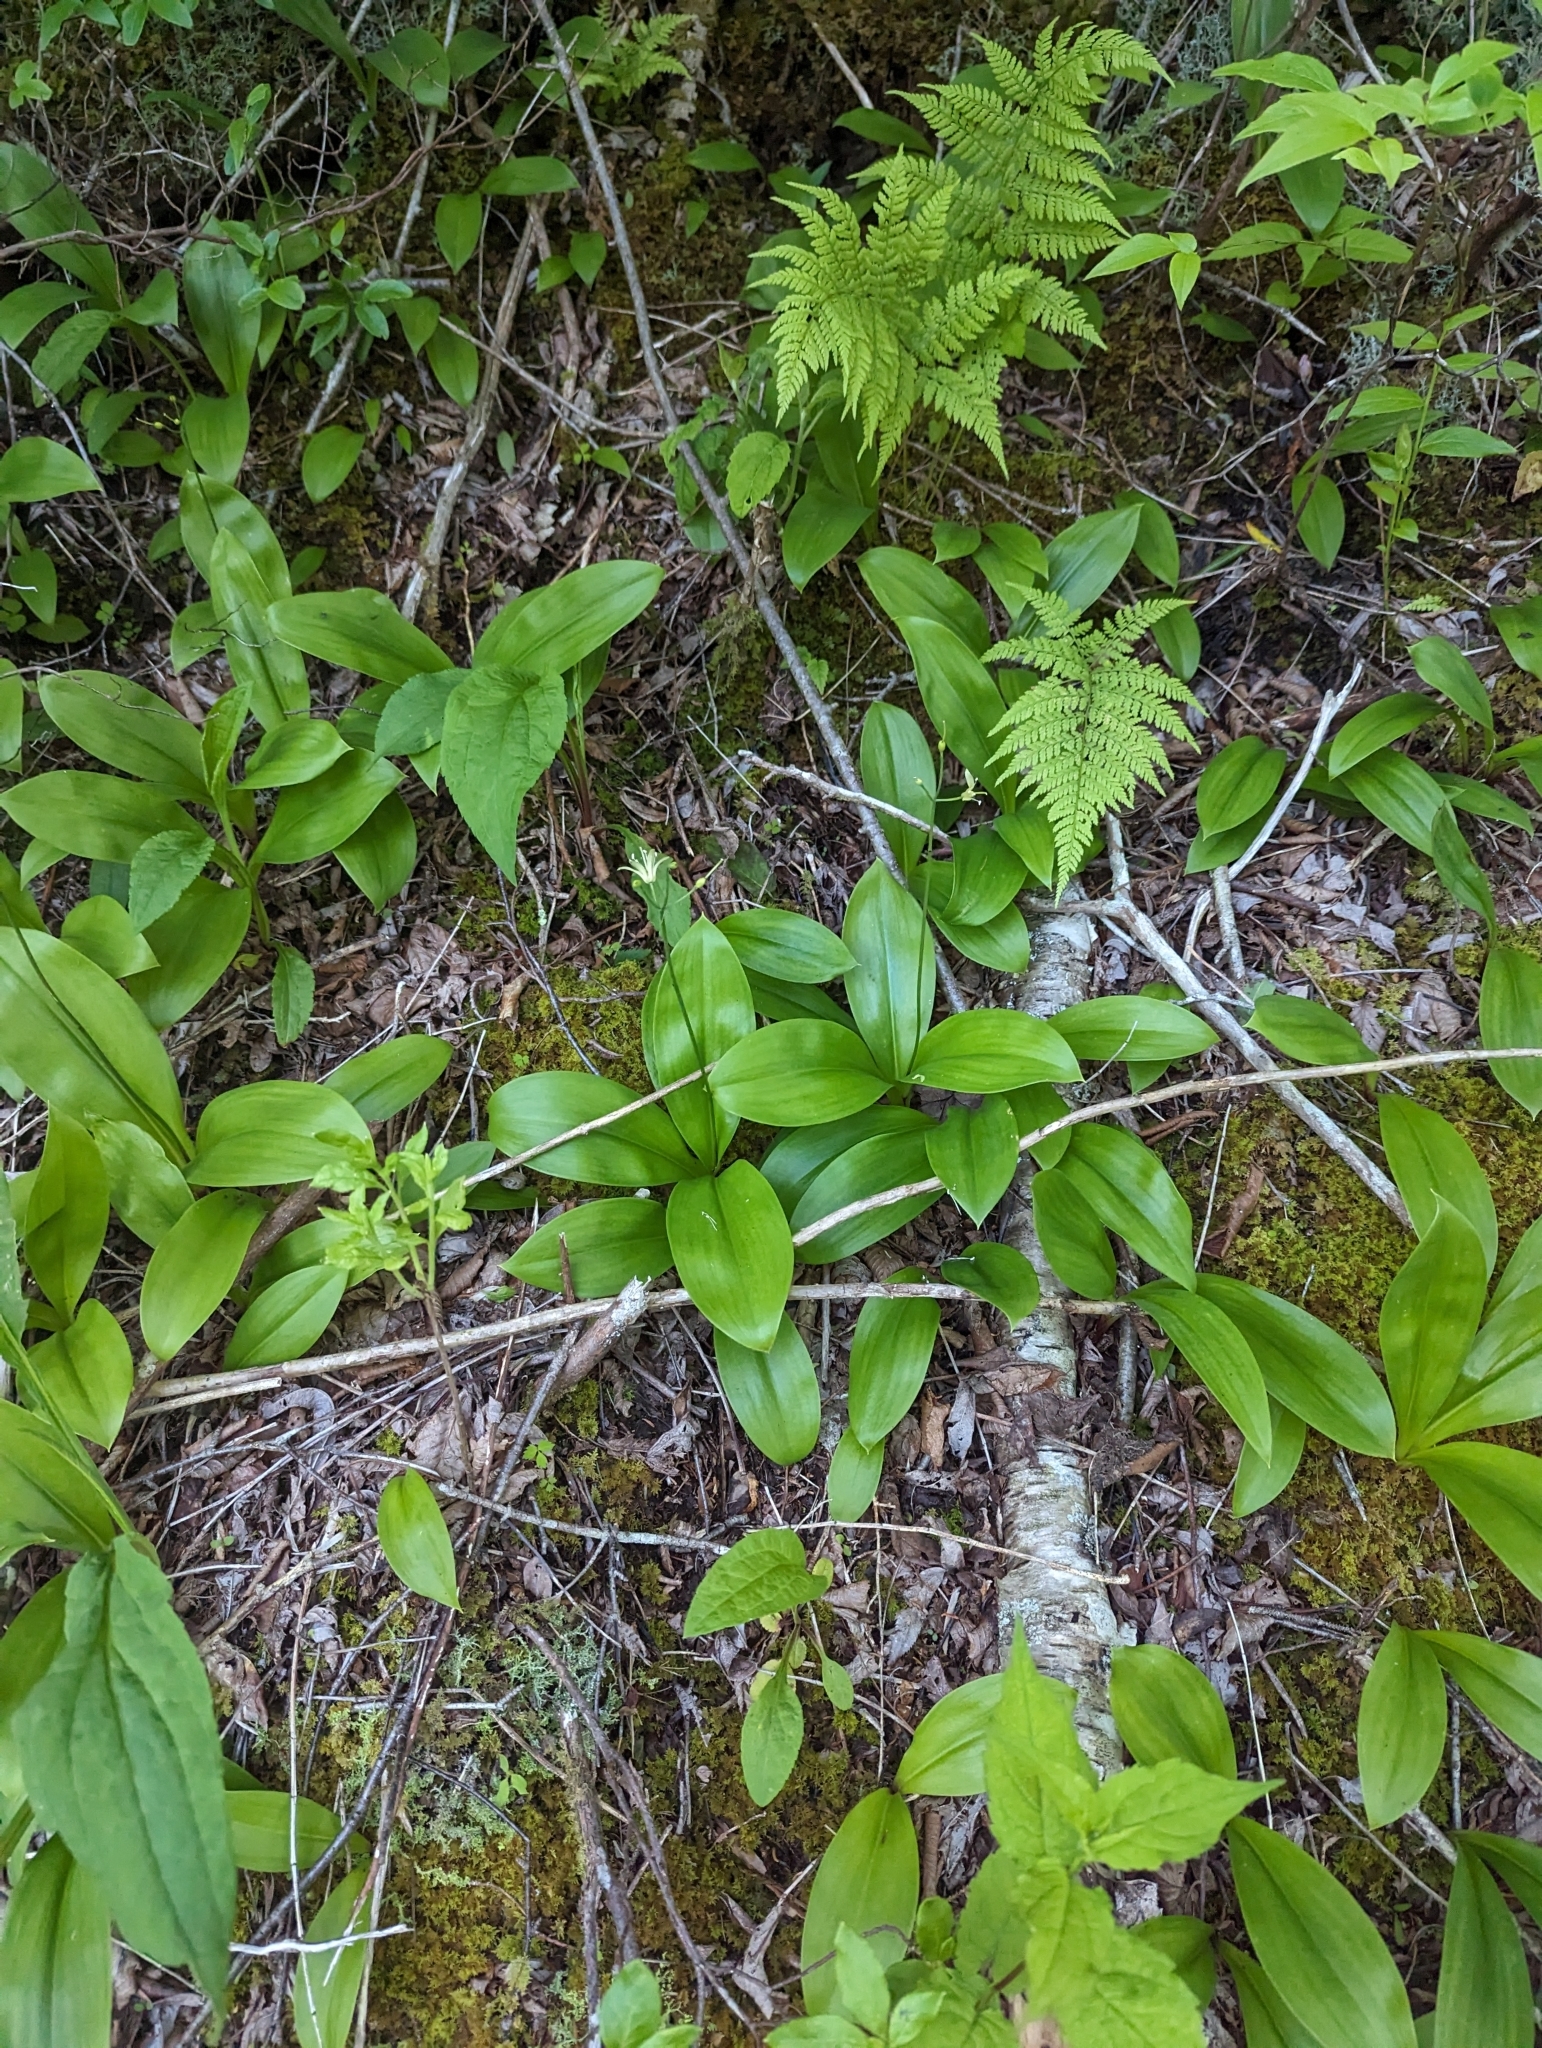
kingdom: Plantae
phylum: Tracheophyta
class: Liliopsida
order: Liliales
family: Liliaceae
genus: Clintonia
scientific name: Clintonia borealis
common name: Yellow clintonia
